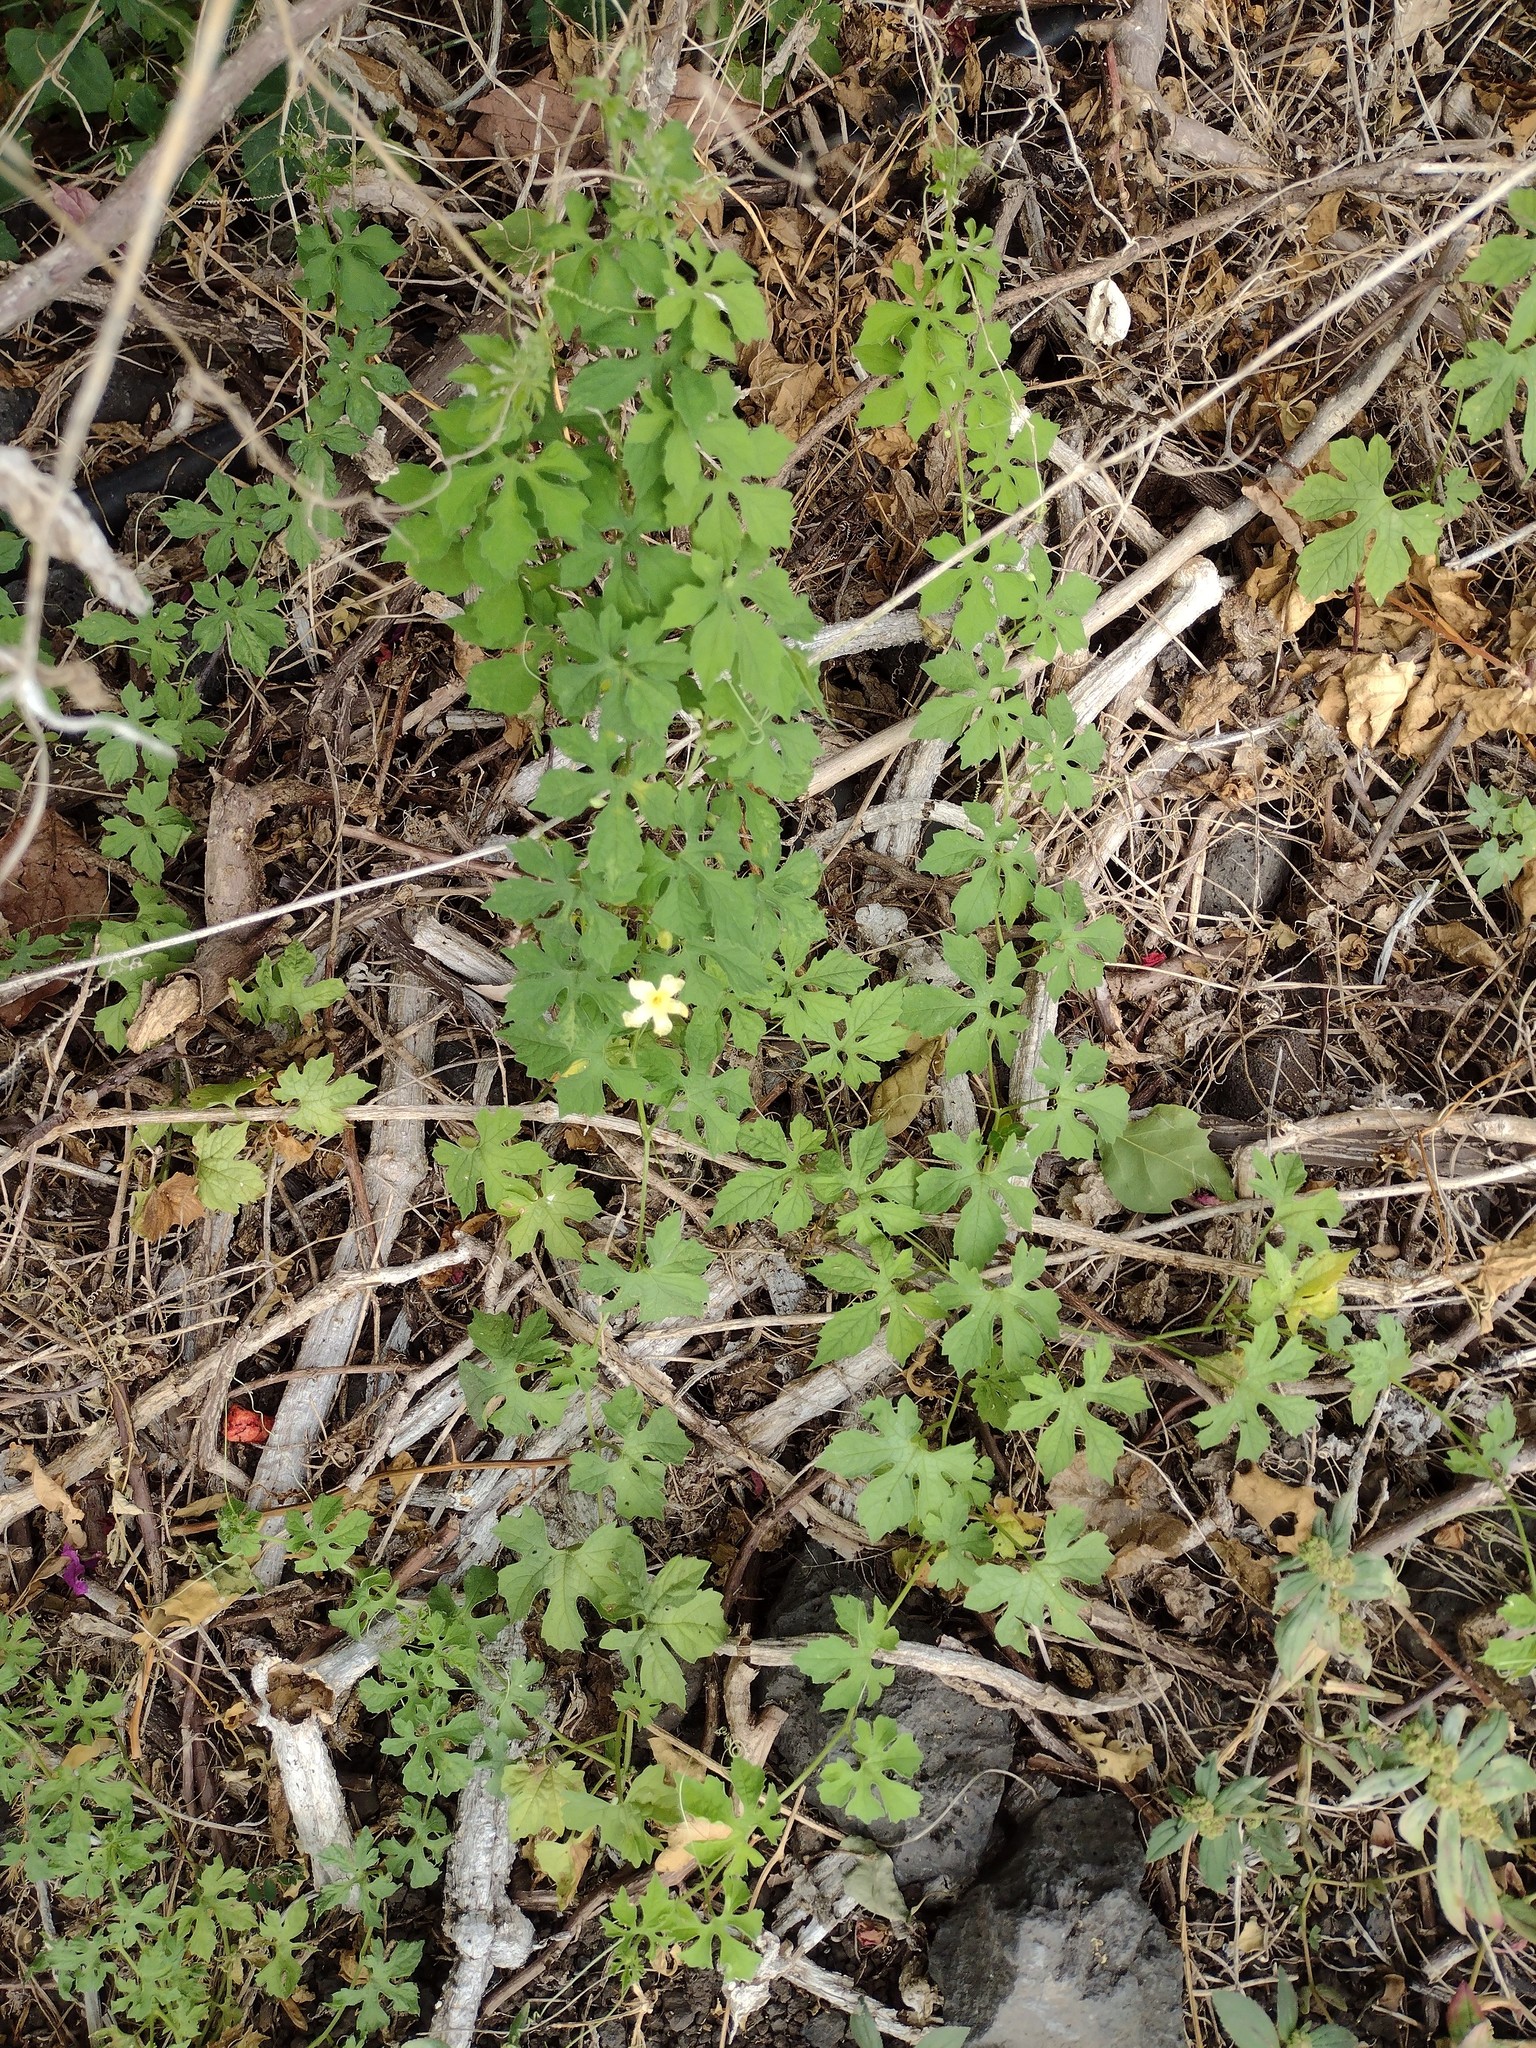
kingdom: Plantae
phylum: Tracheophyta
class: Magnoliopsida
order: Cucurbitales
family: Cucurbitaceae
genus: Momordica
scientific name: Momordica charantia
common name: Balsampear
